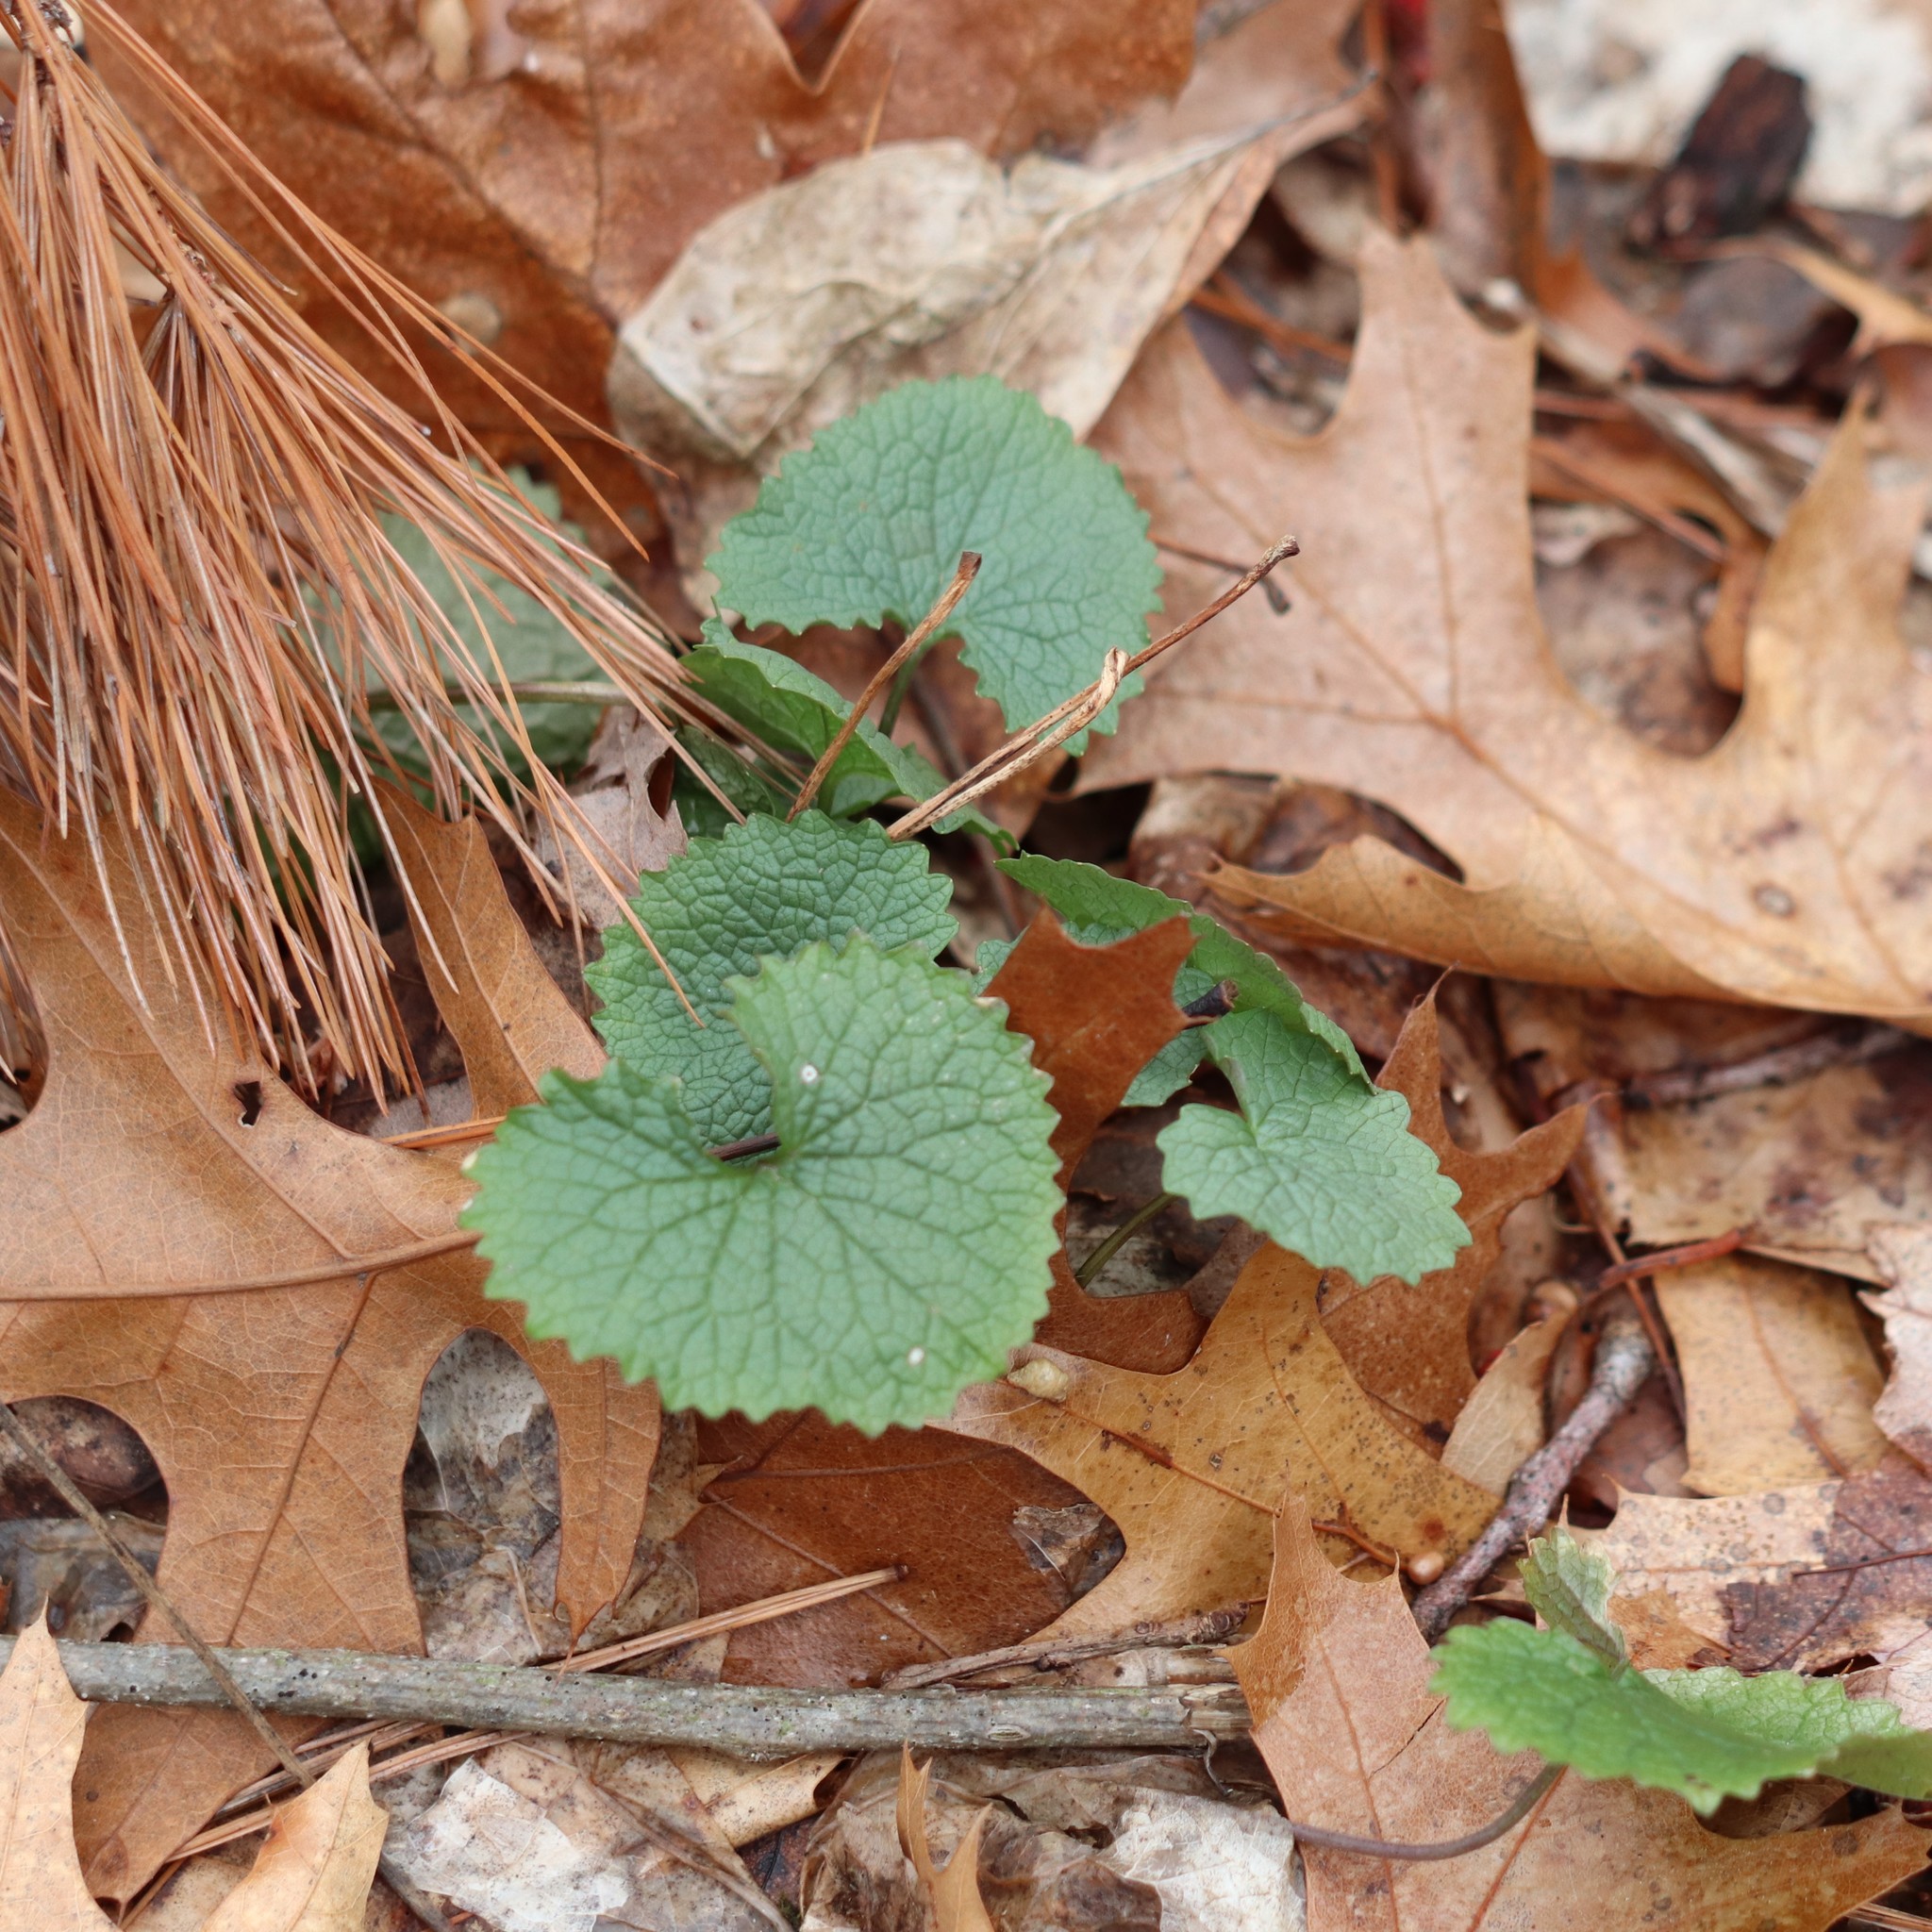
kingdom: Plantae
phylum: Tracheophyta
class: Magnoliopsida
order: Brassicales
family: Brassicaceae
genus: Alliaria
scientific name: Alliaria petiolata
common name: Garlic mustard
